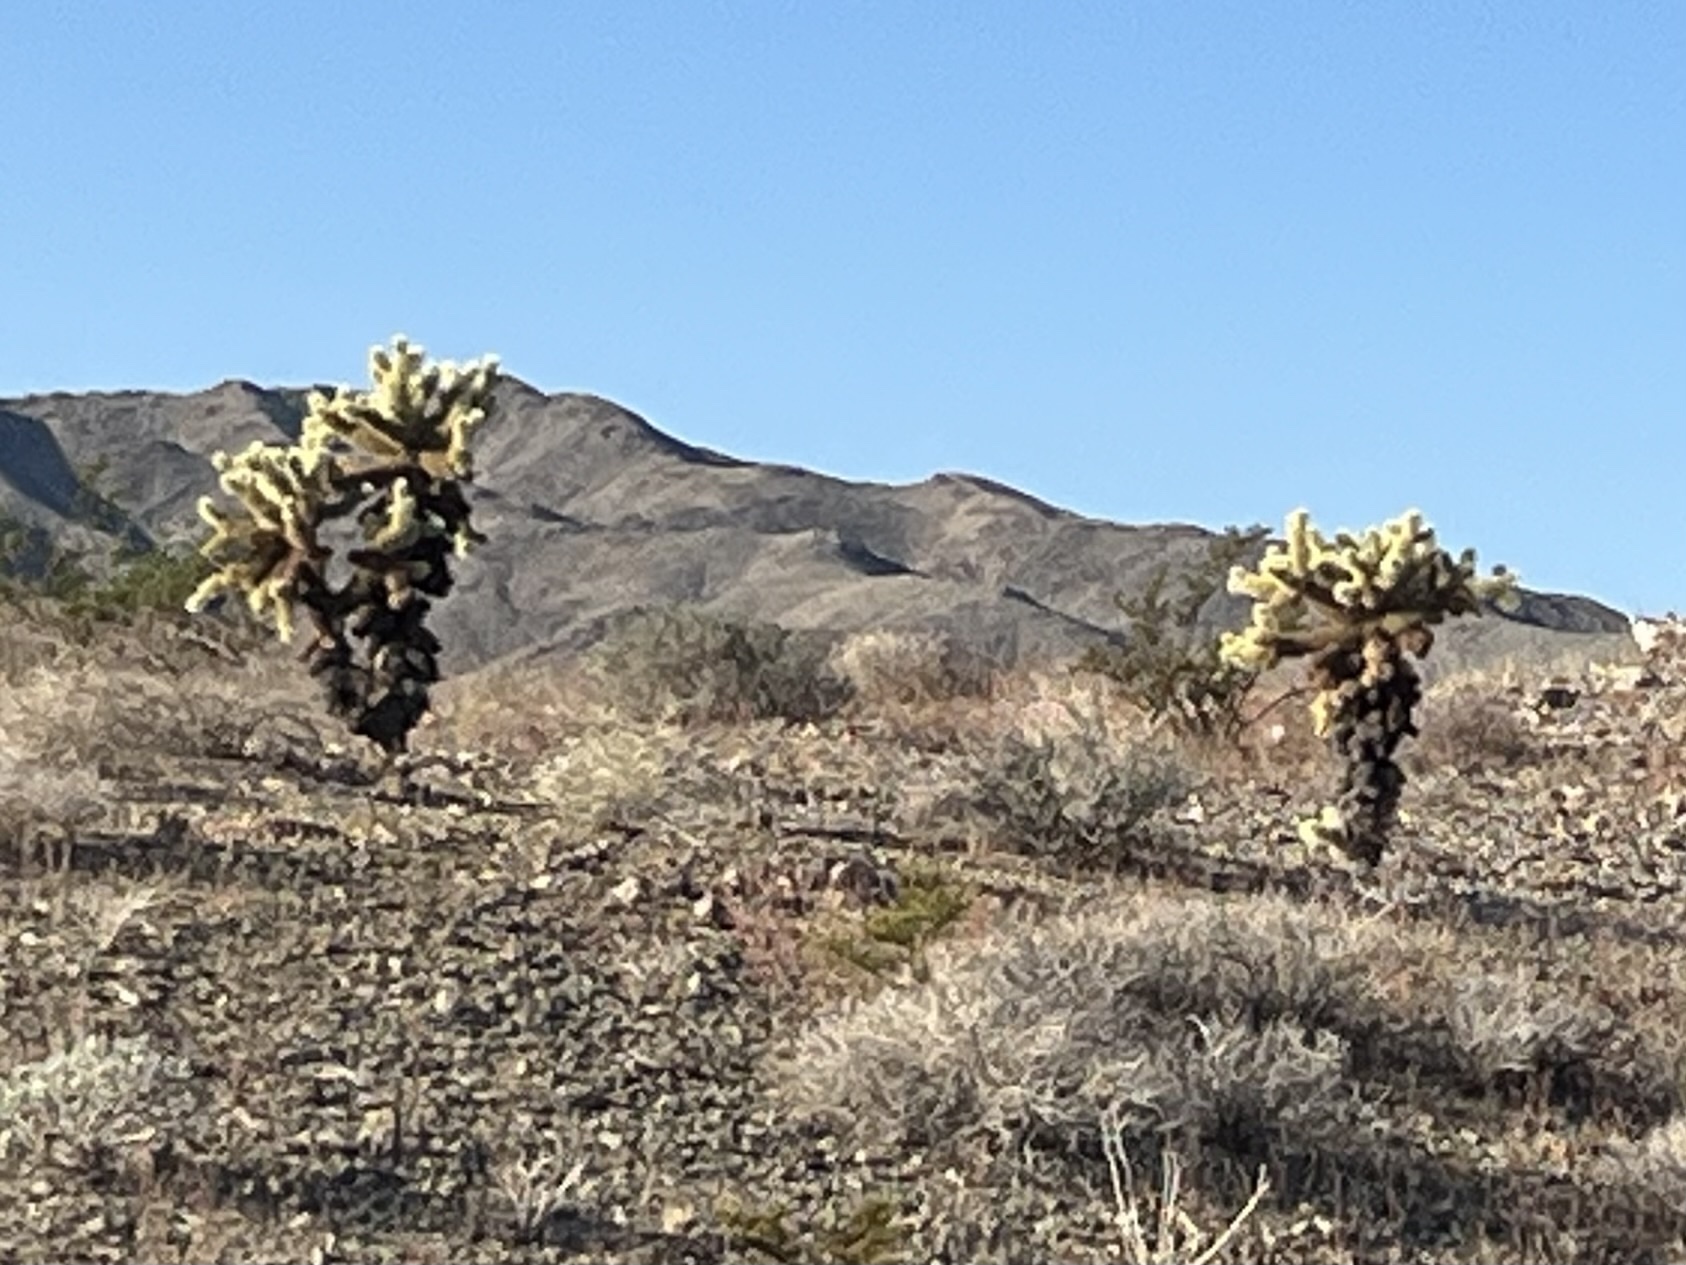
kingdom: Plantae
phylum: Tracheophyta
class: Magnoliopsida
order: Caryophyllales
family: Cactaceae
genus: Cylindropuntia
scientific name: Cylindropuntia fosbergii
